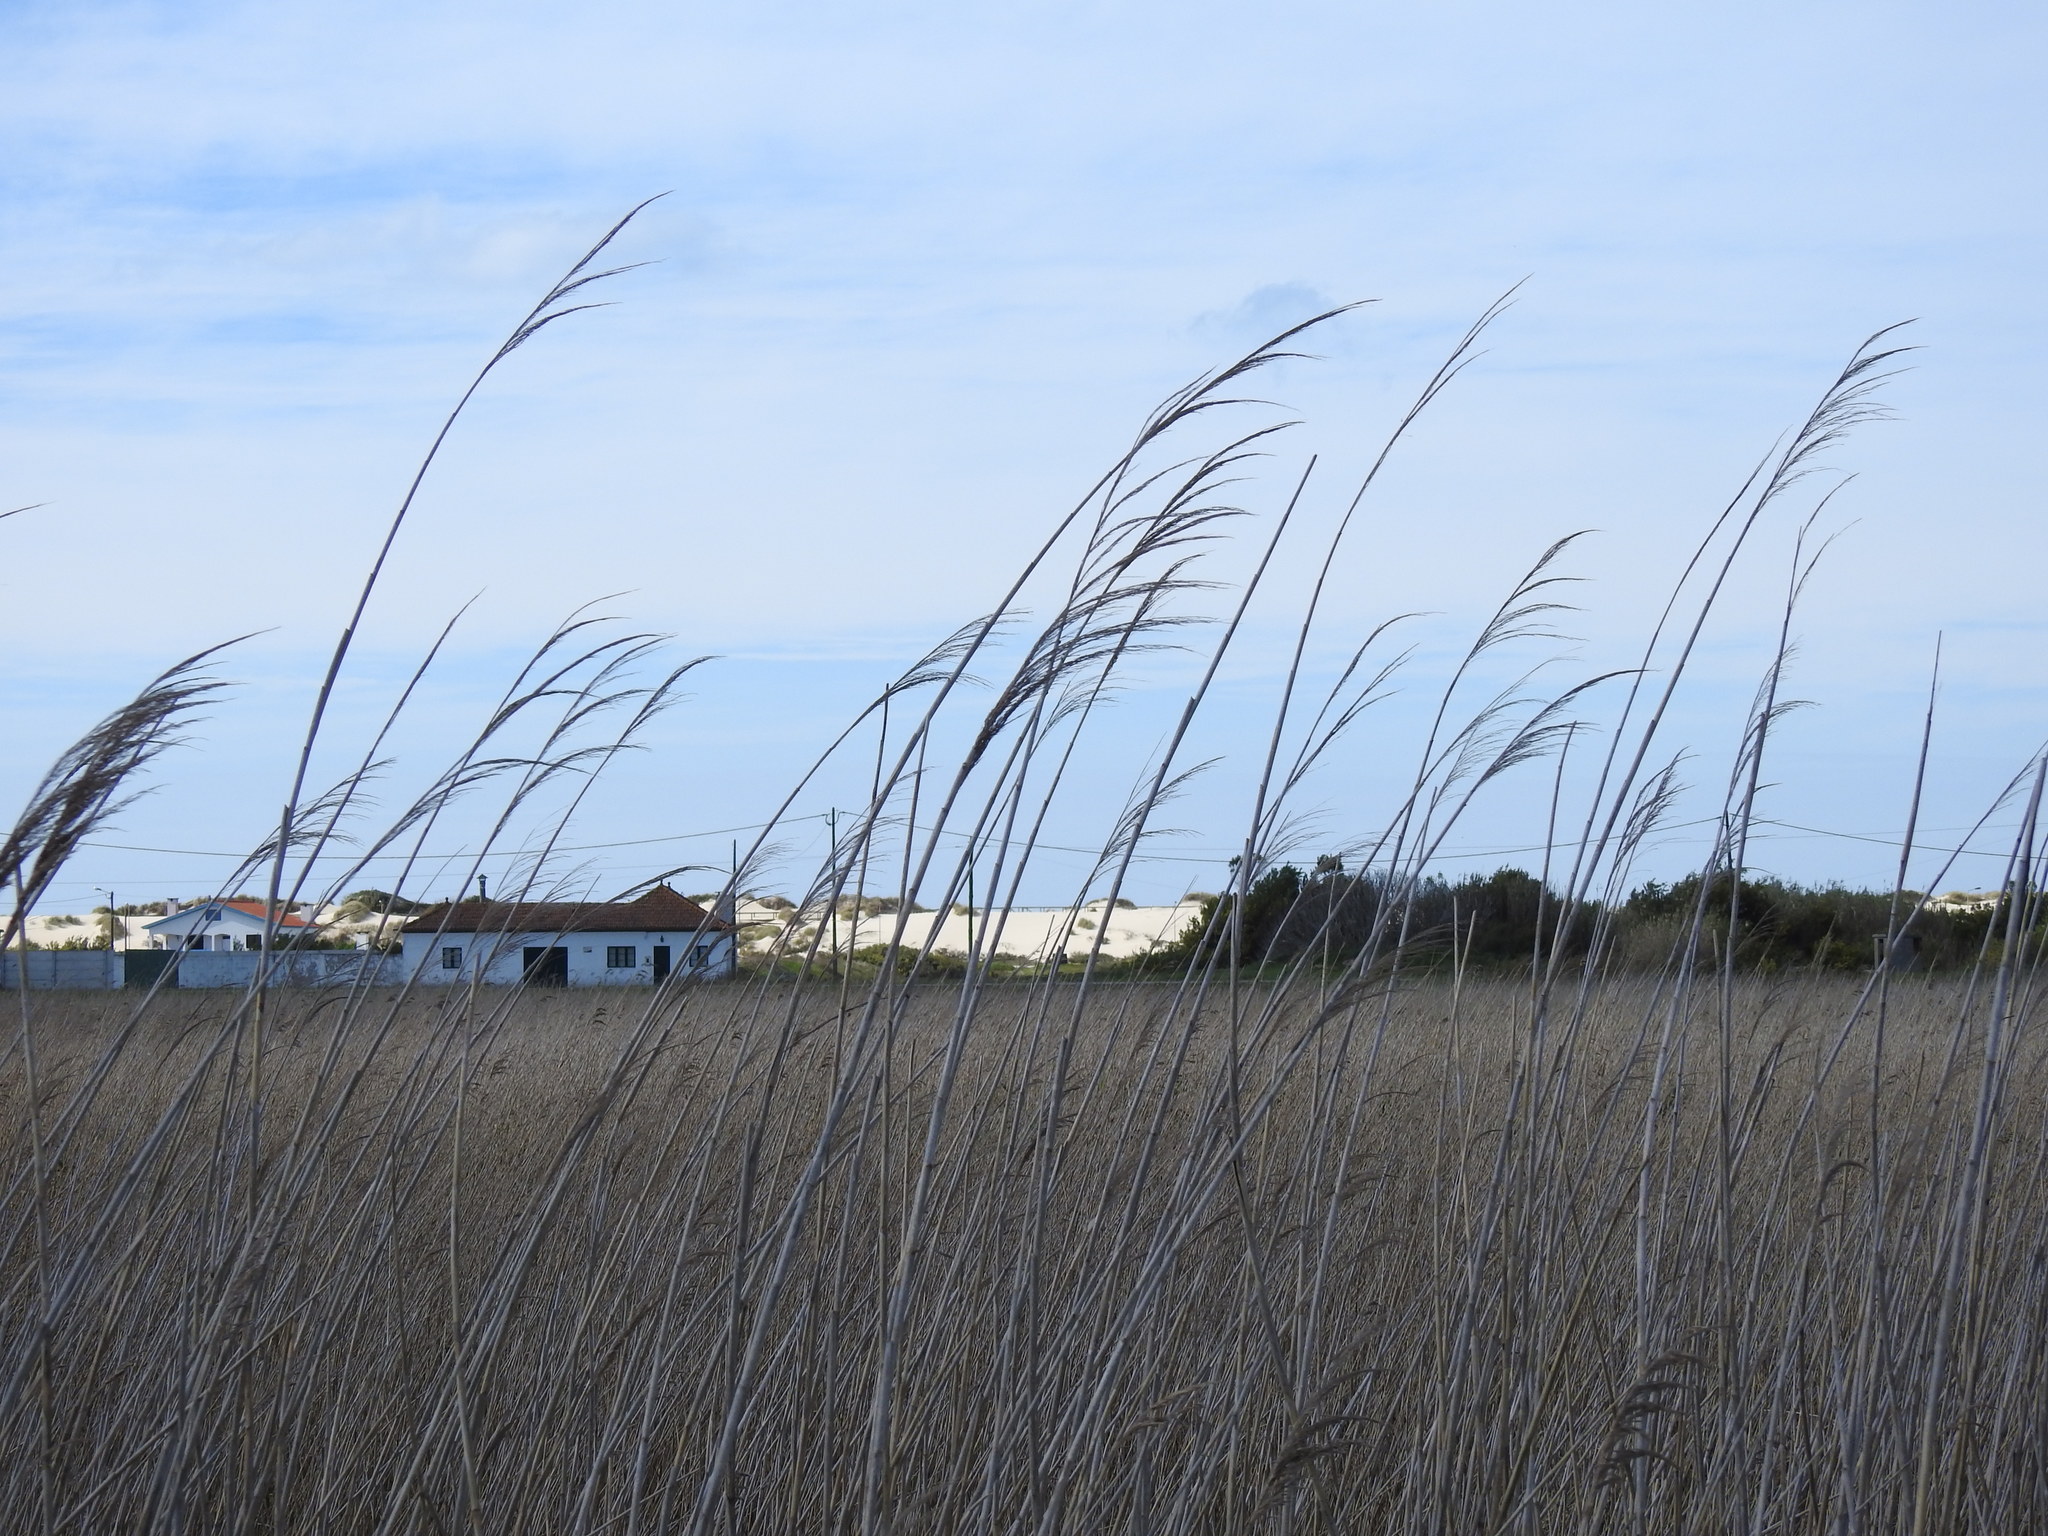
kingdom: Plantae
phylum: Tracheophyta
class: Liliopsida
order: Poales
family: Poaceae
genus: Phragmites
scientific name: Phragmites australis
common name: Common reed
